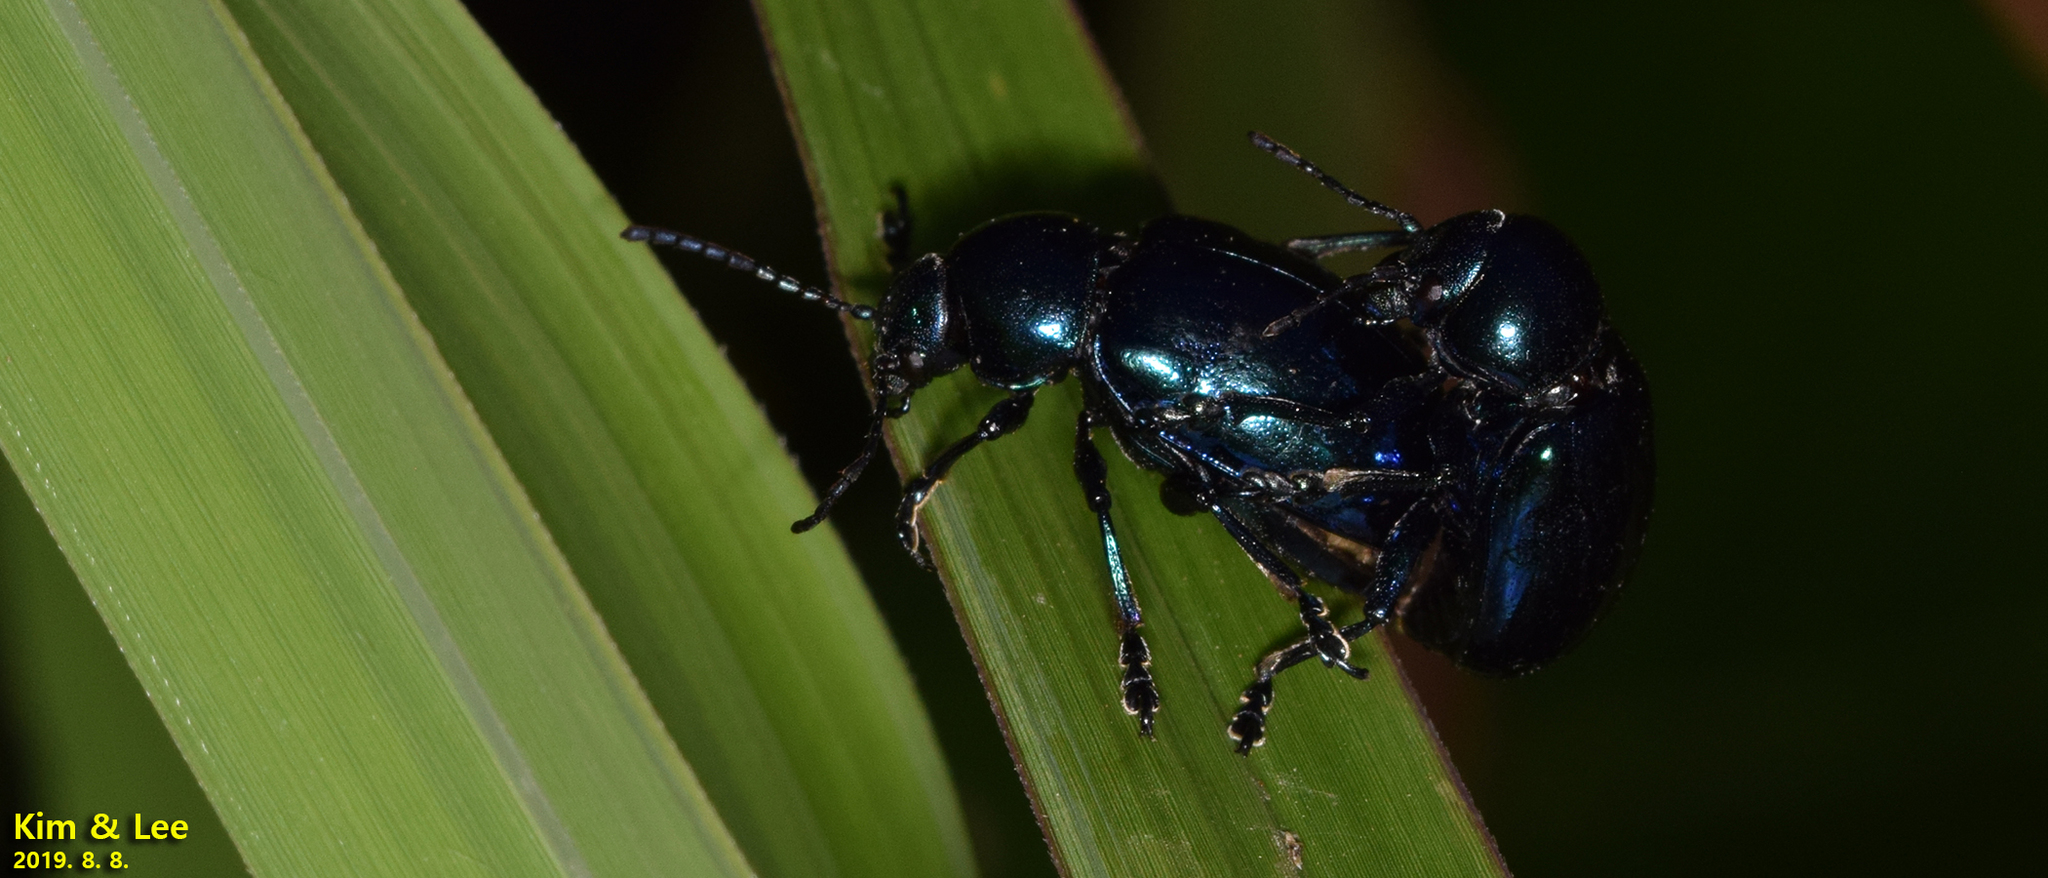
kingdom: Animalia
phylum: Arthropoda
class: Insecta
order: Coleoptera
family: Chrysomelidae
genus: Chrysochus
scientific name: Chrysochus chinensis
